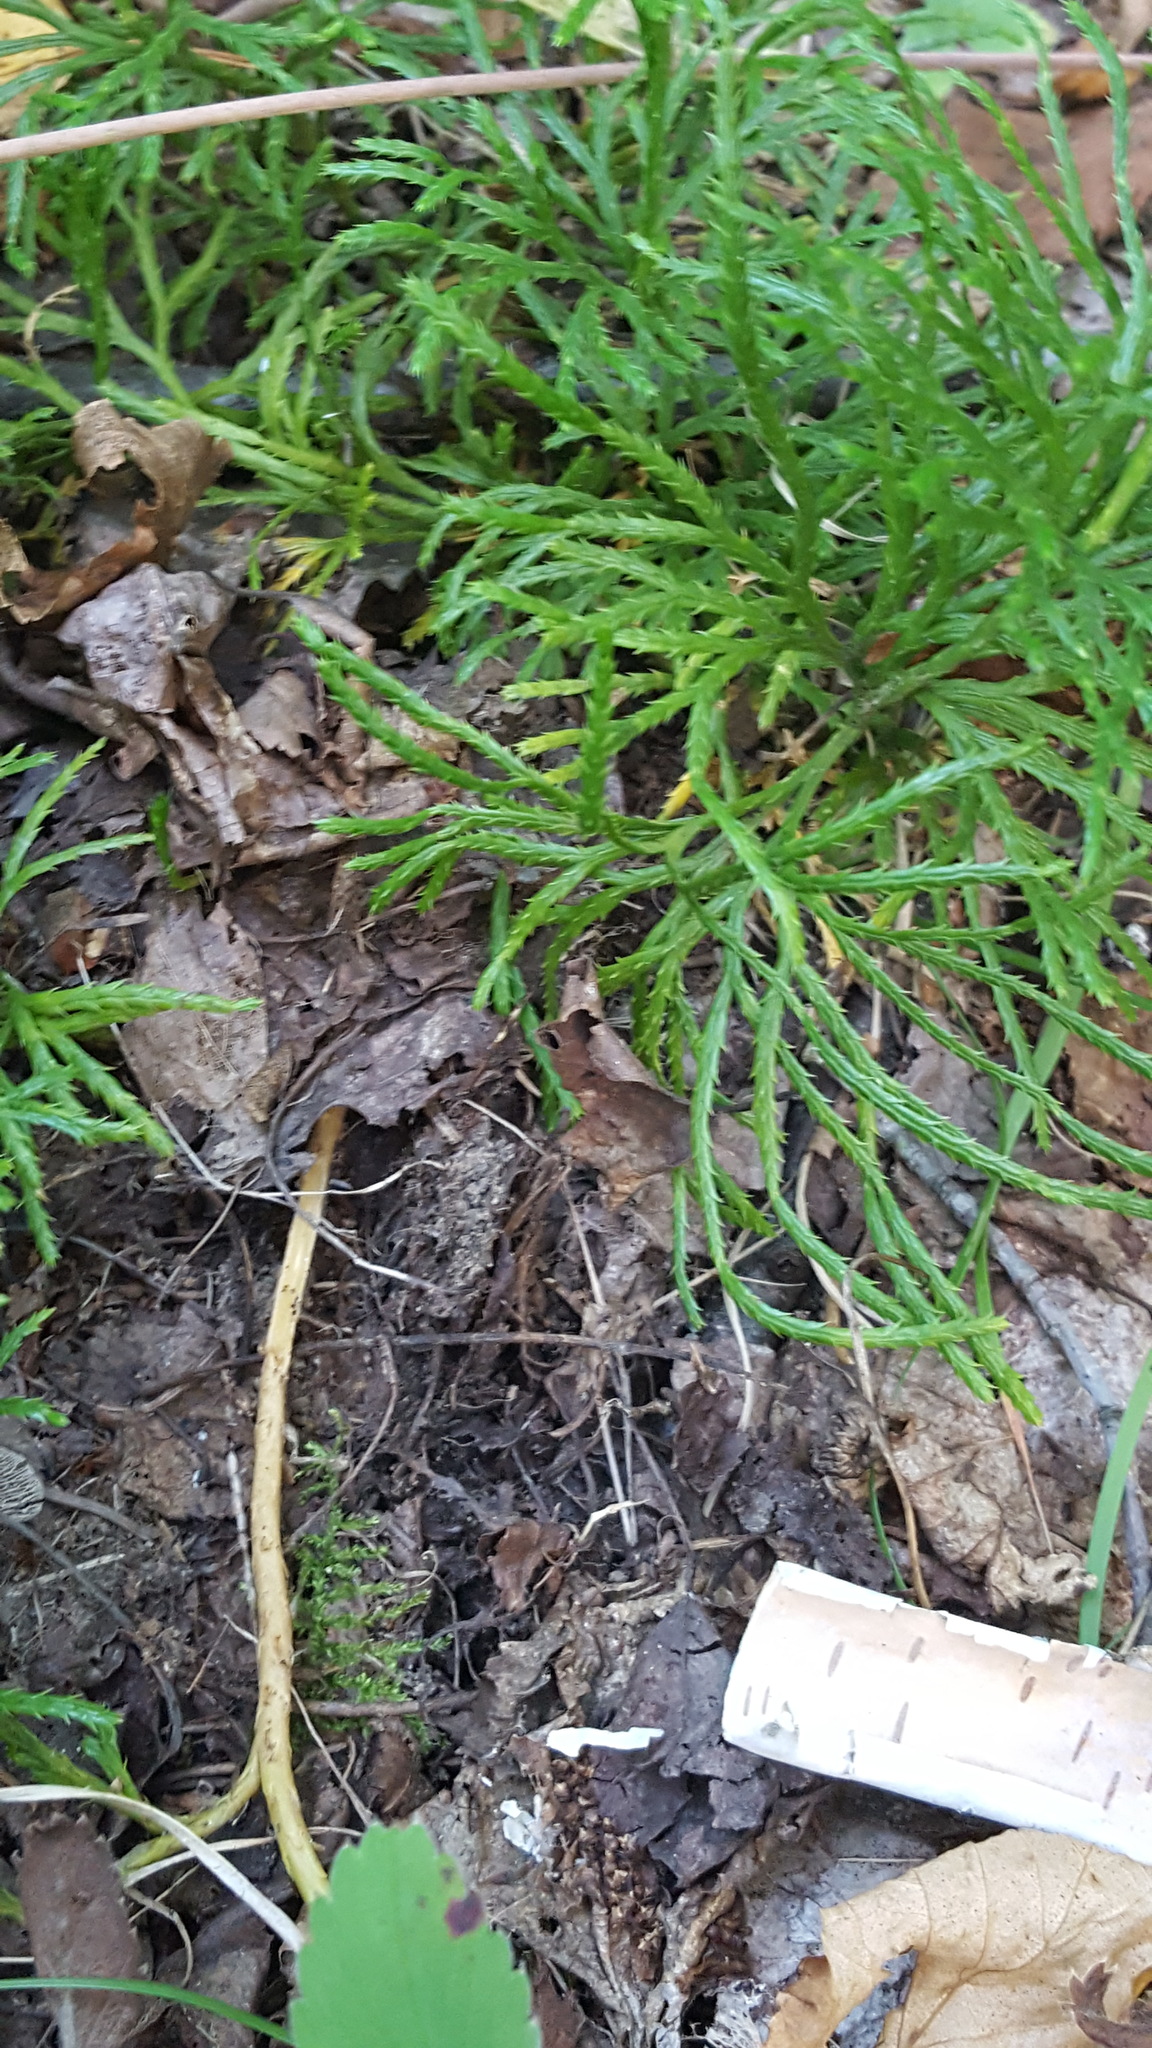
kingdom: Plantae
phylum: Tracheophyta
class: Lycopodiopsida
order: Lycopodiales
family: Lycopodiaceae
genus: Diphasiastrum
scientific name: Diphasiastrum complanatum
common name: Northern running-pine
